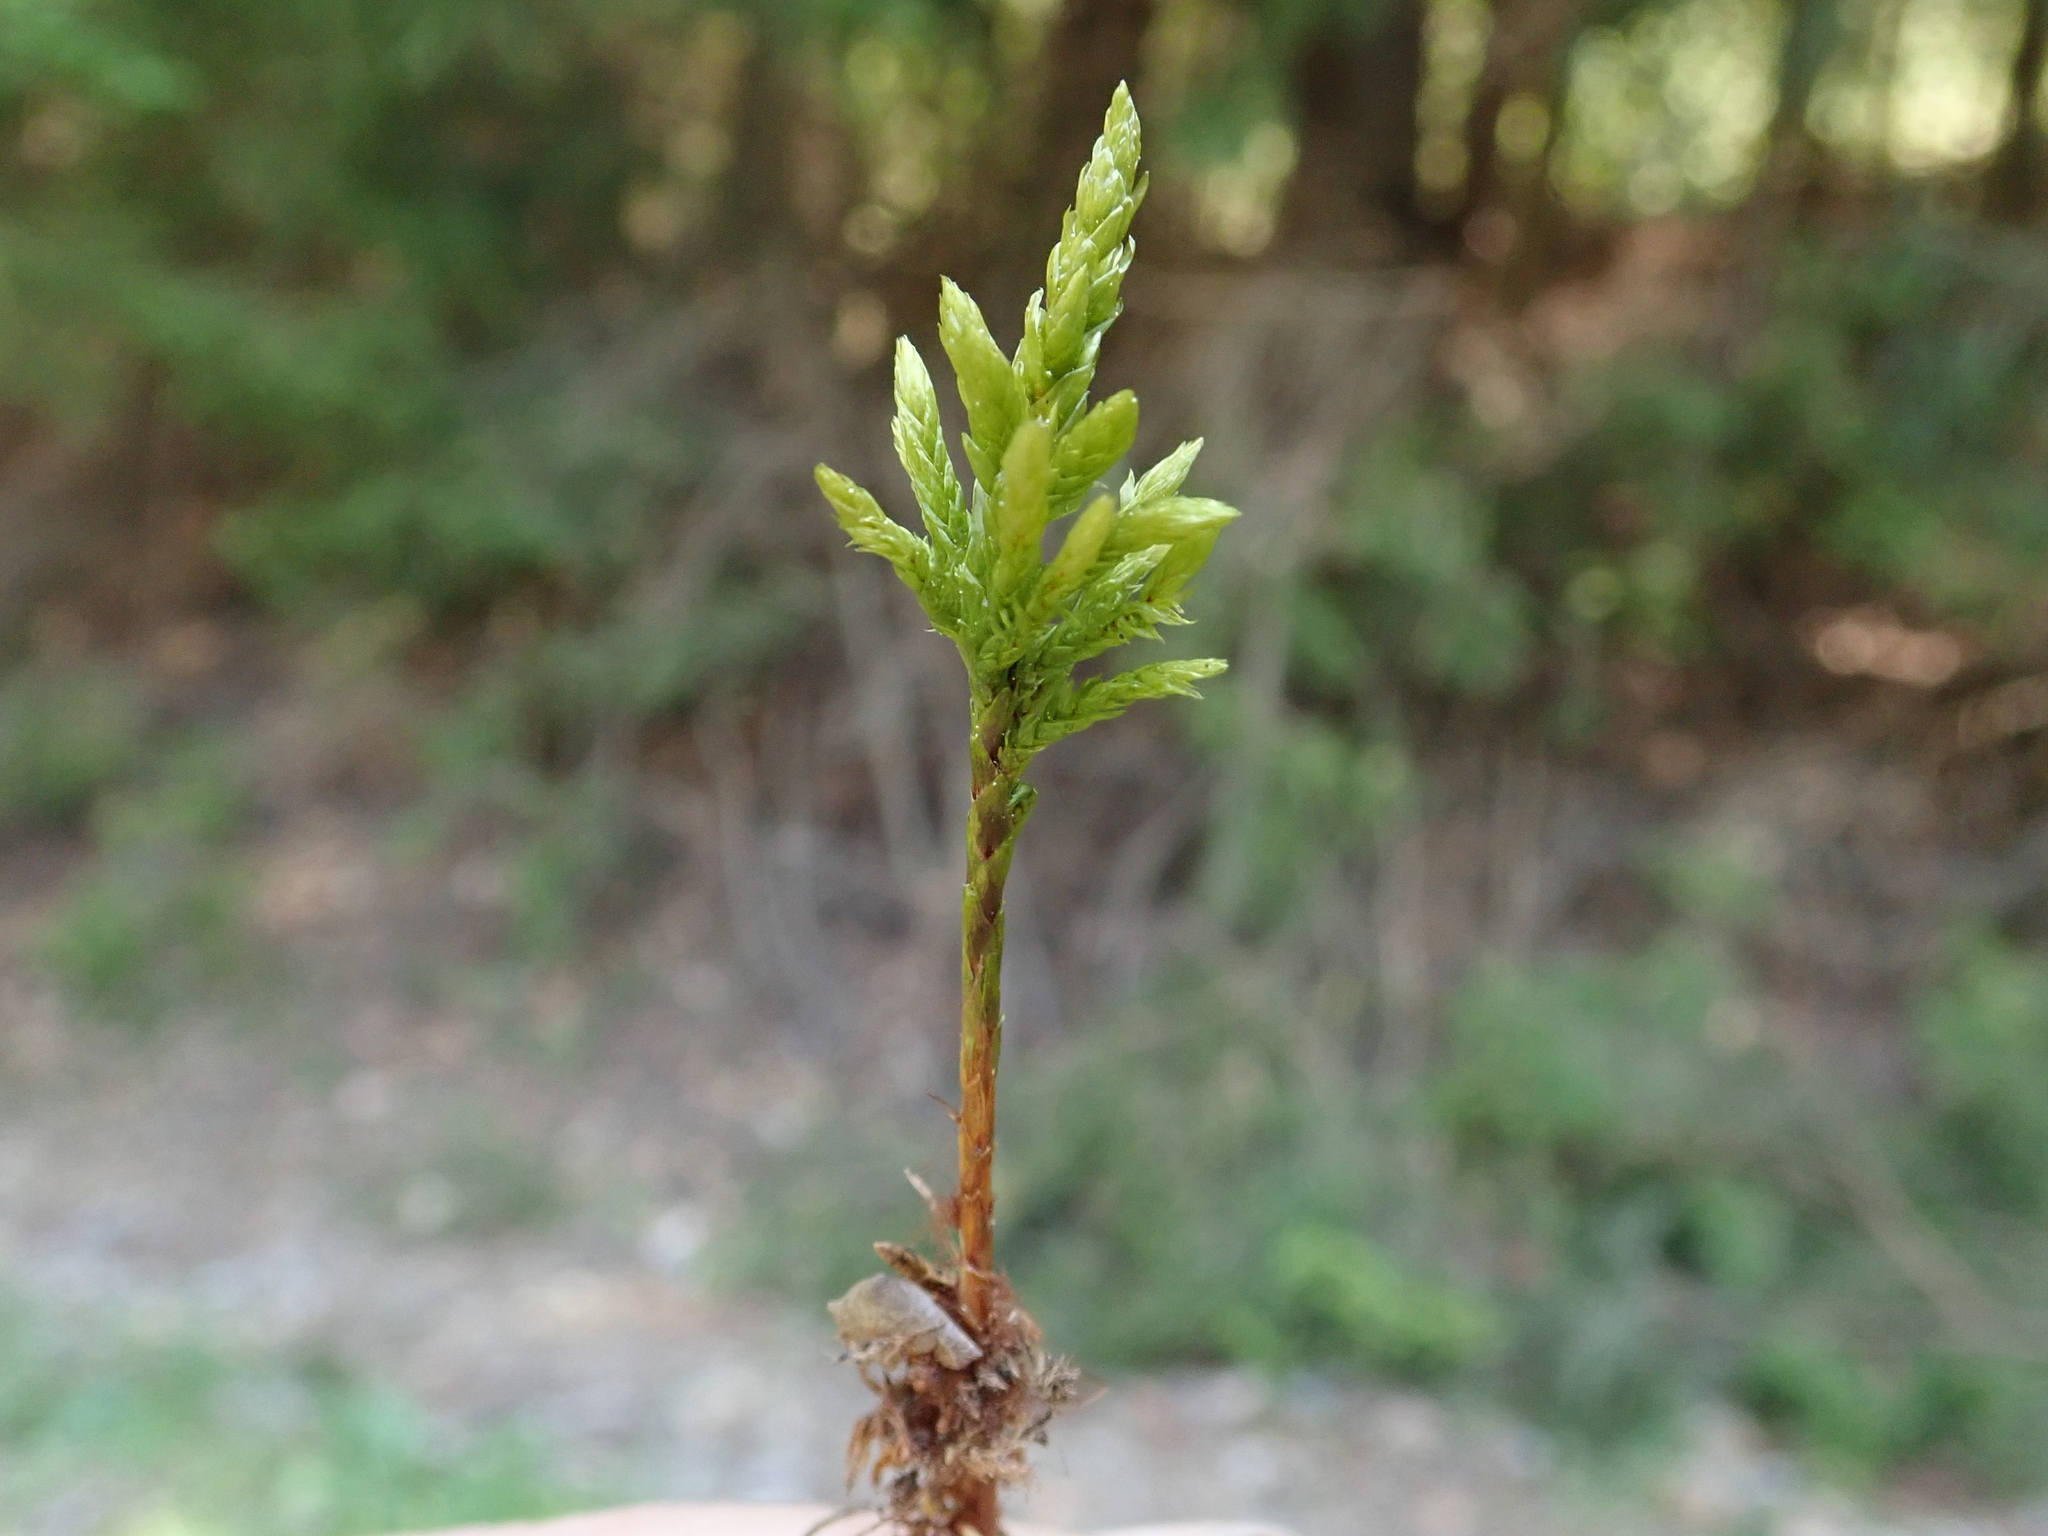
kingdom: Plantae
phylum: Bryophyta
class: Bryopsida
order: Hypnales
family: Climaciaceae
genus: Climacium
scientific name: Climacium dendroides
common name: Northern tree moss
